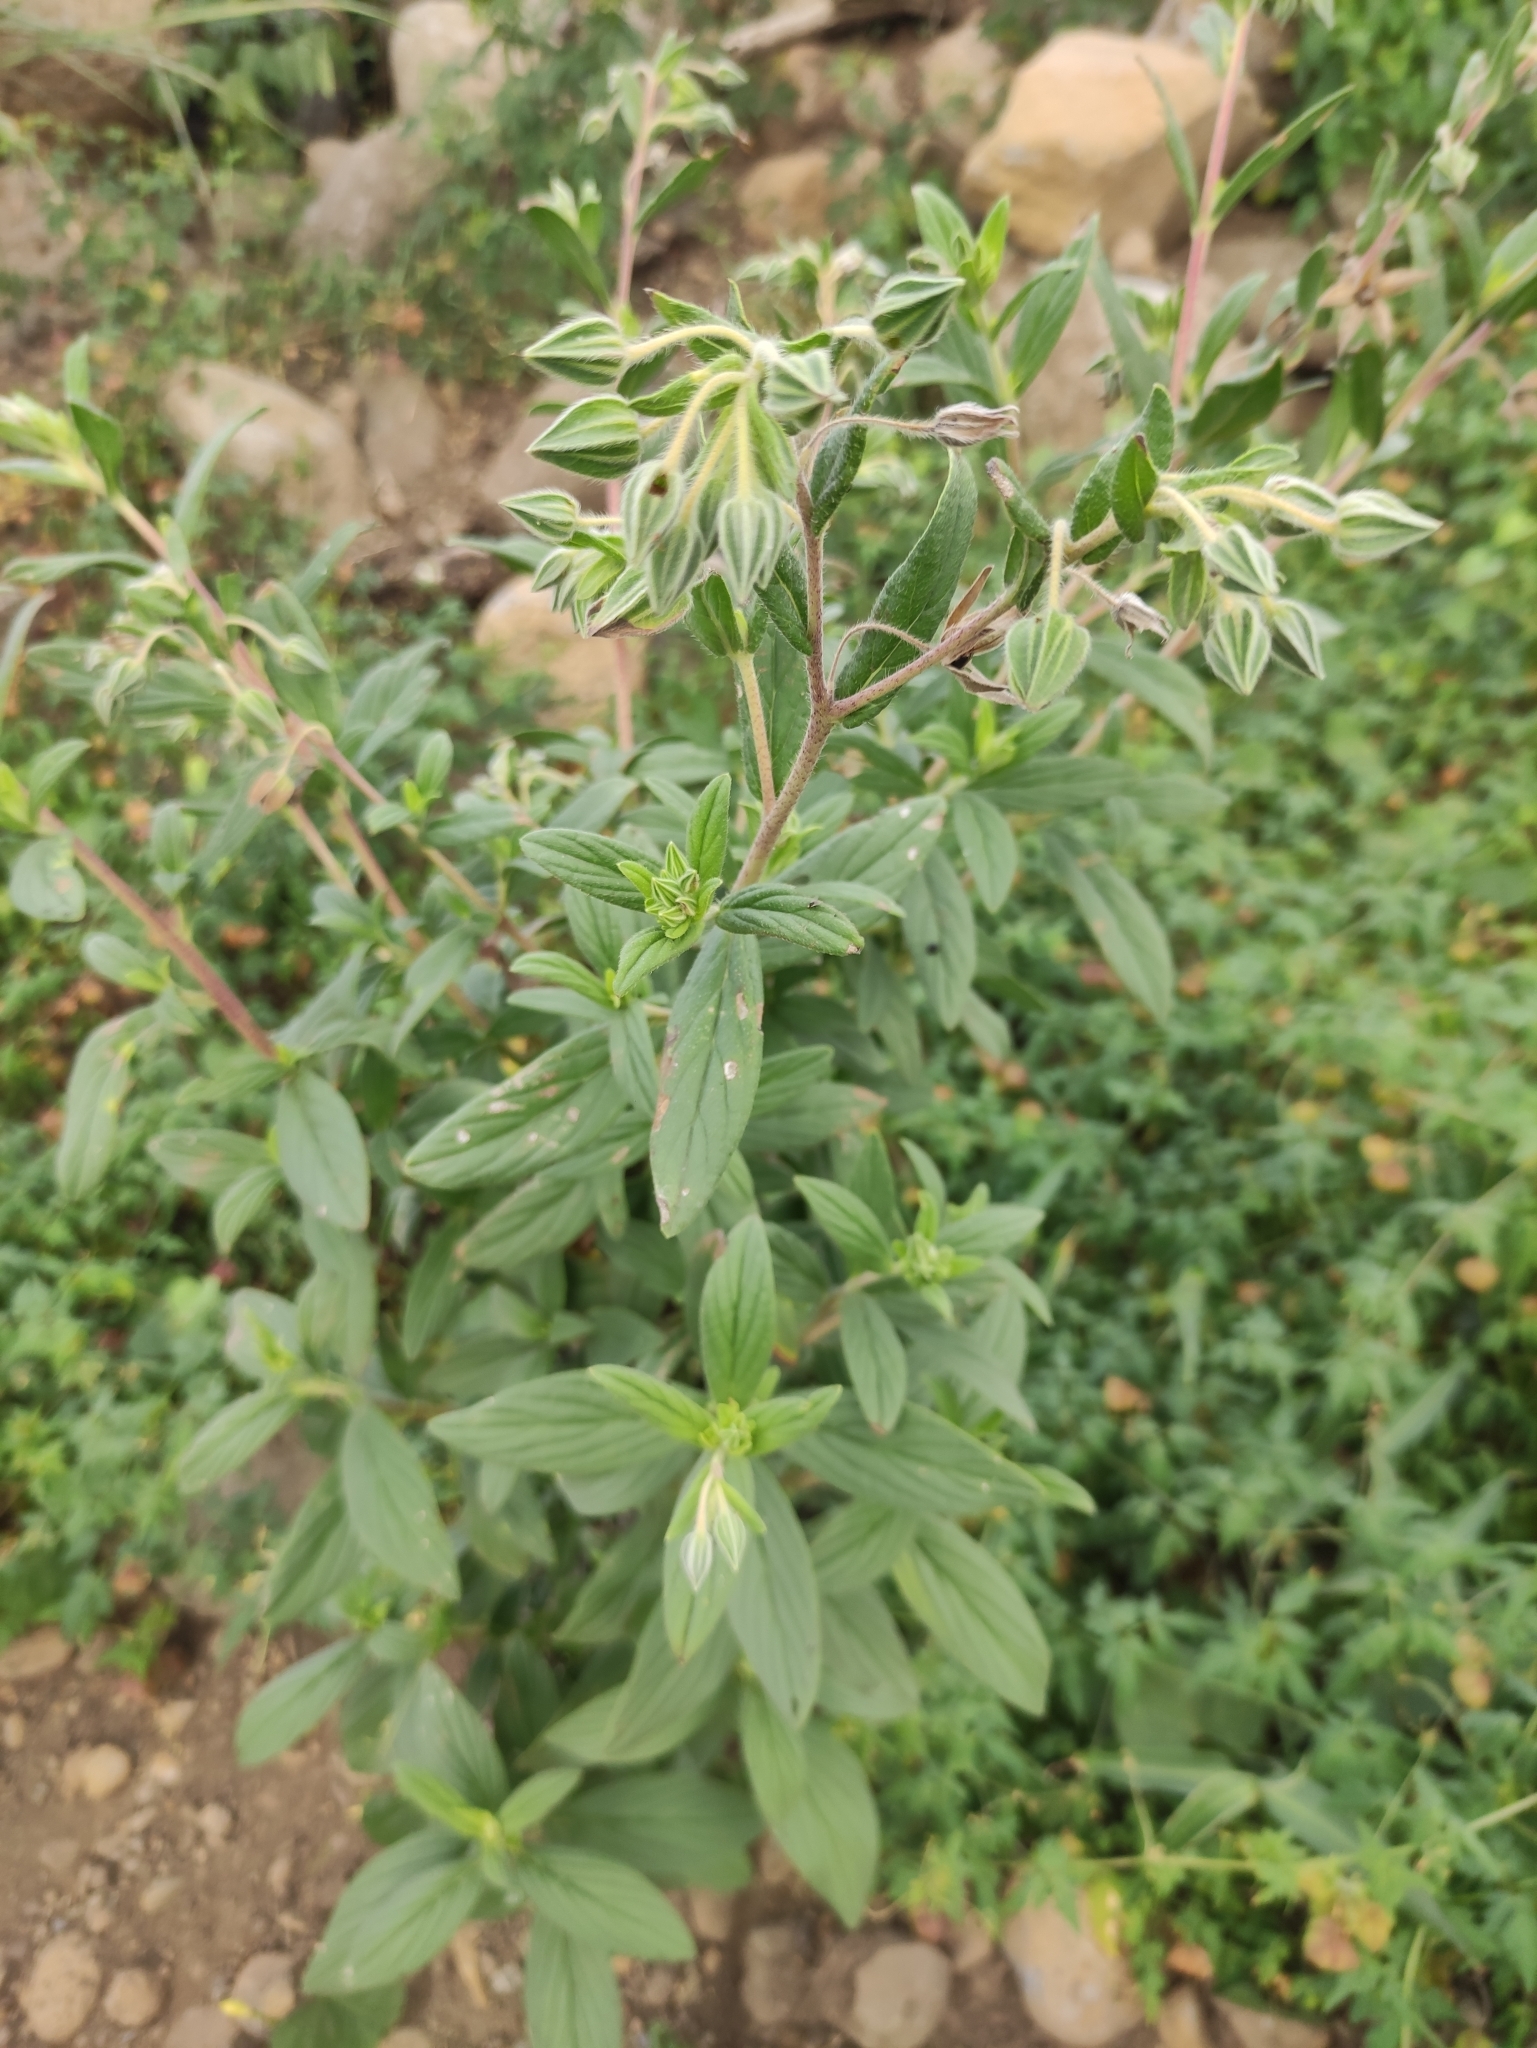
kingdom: Plantae
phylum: Tracheophyta
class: Magnoliopsida
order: Boraginales
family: Boraginaceae
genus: Trichodesma
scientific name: Trichodesma zeylanicum
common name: Camelbush
